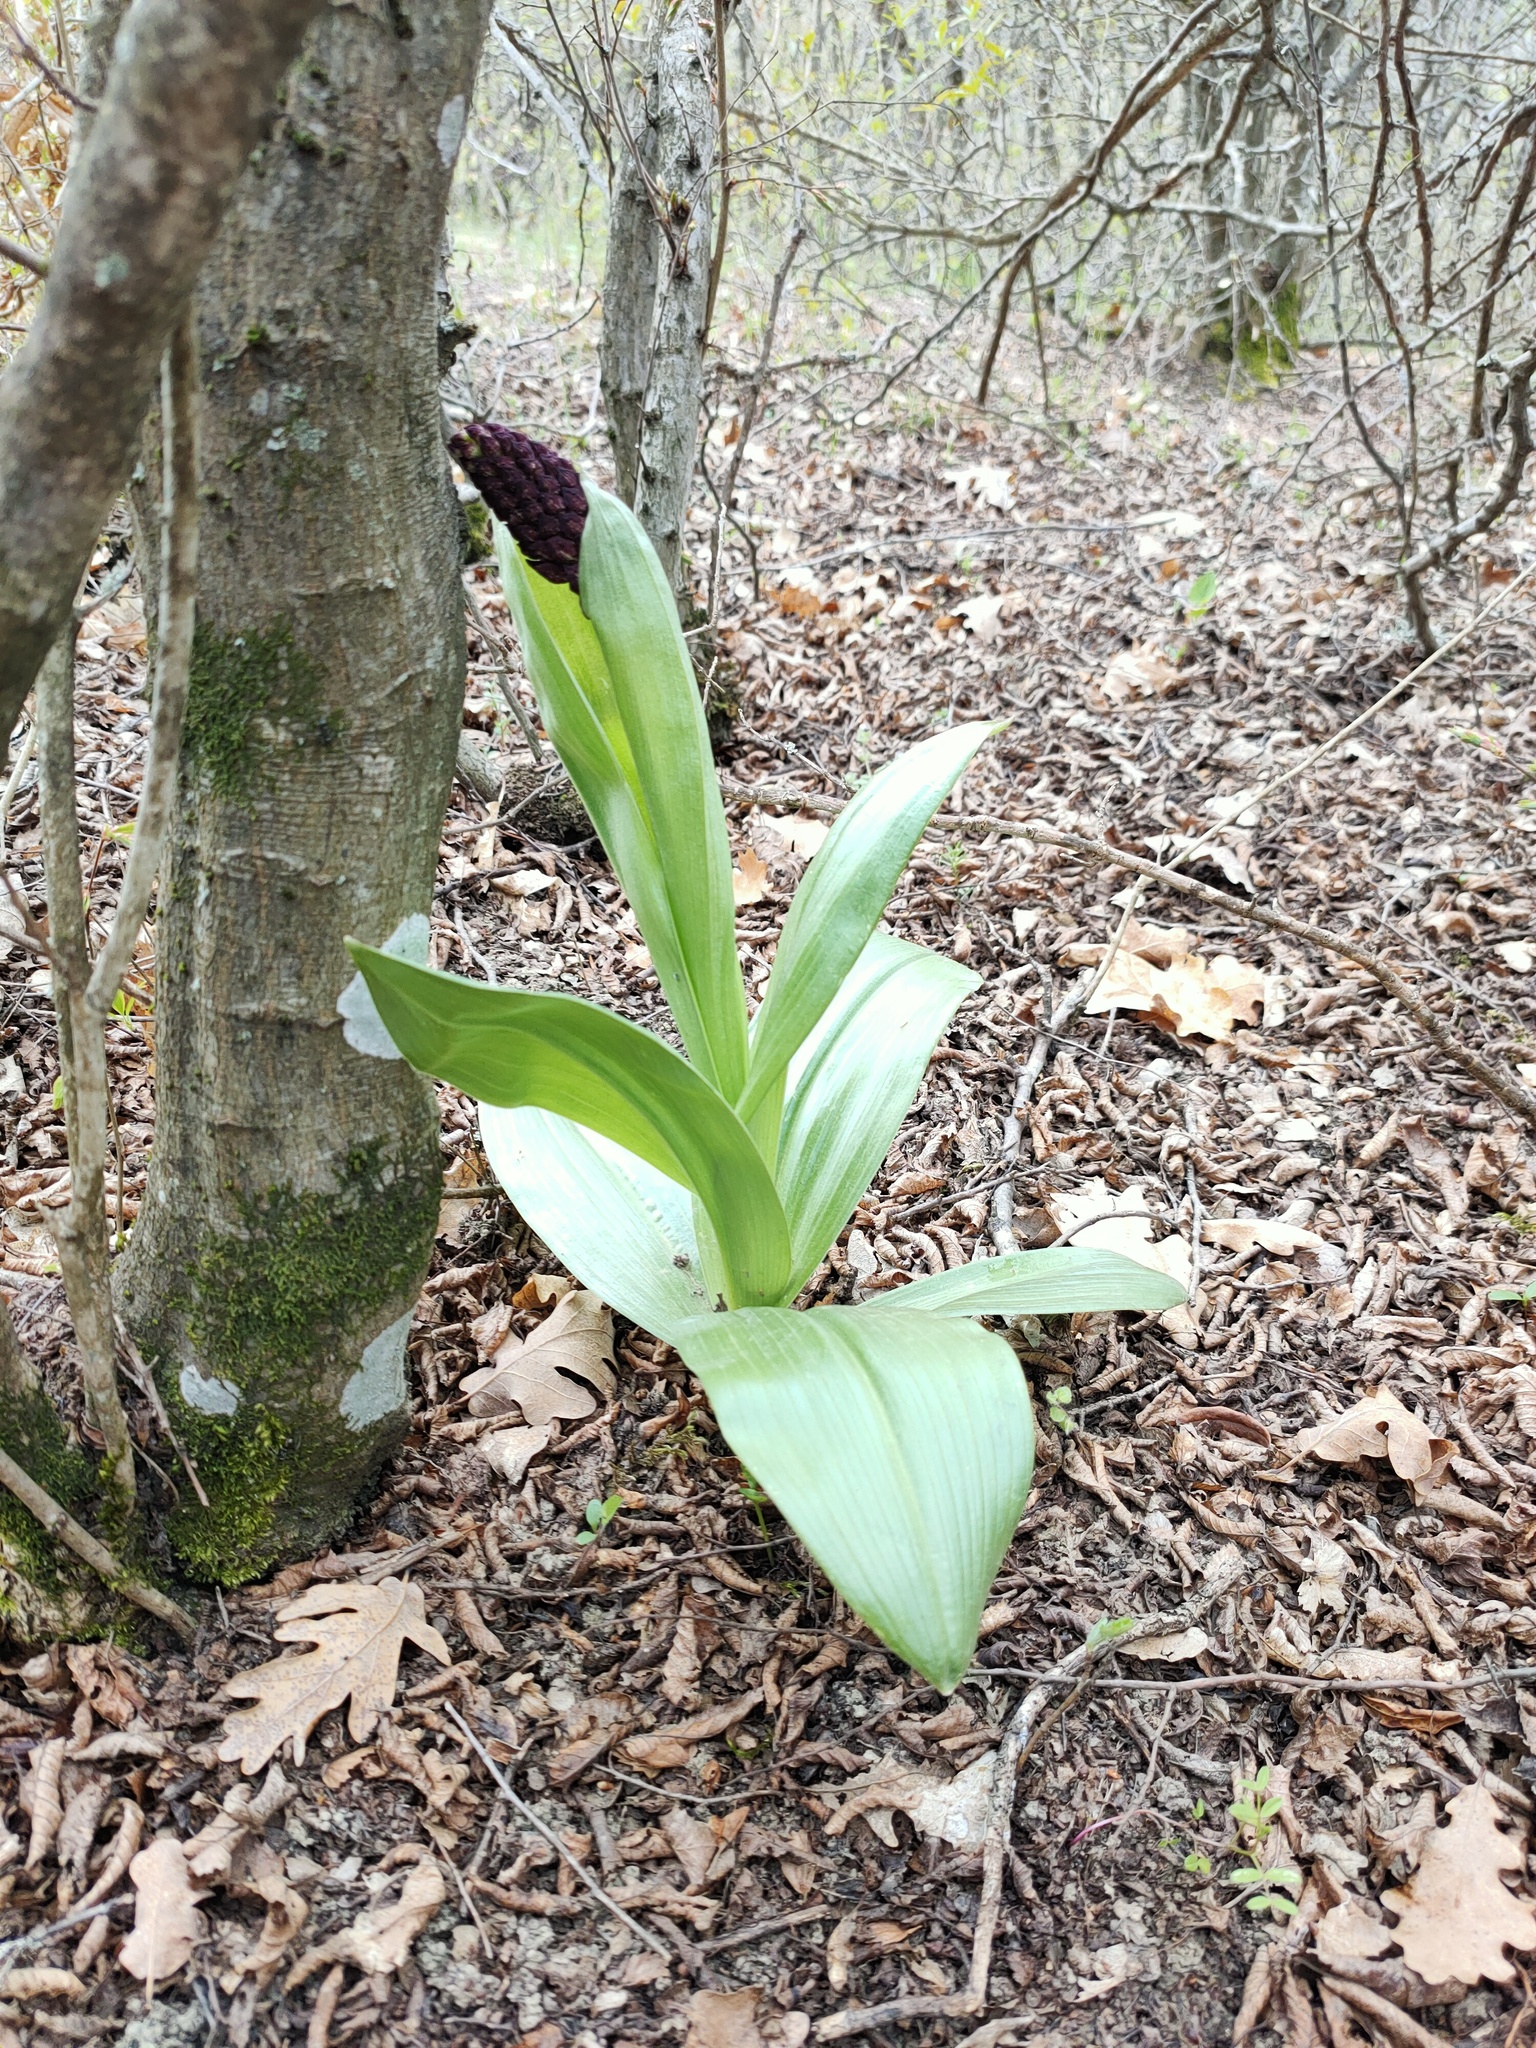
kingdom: Plantae
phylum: Tracheophyta
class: Liliopsida
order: Asparagales
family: Orchidaceae
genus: Orchis
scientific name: Orchis purpurea
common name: Lady orchid
